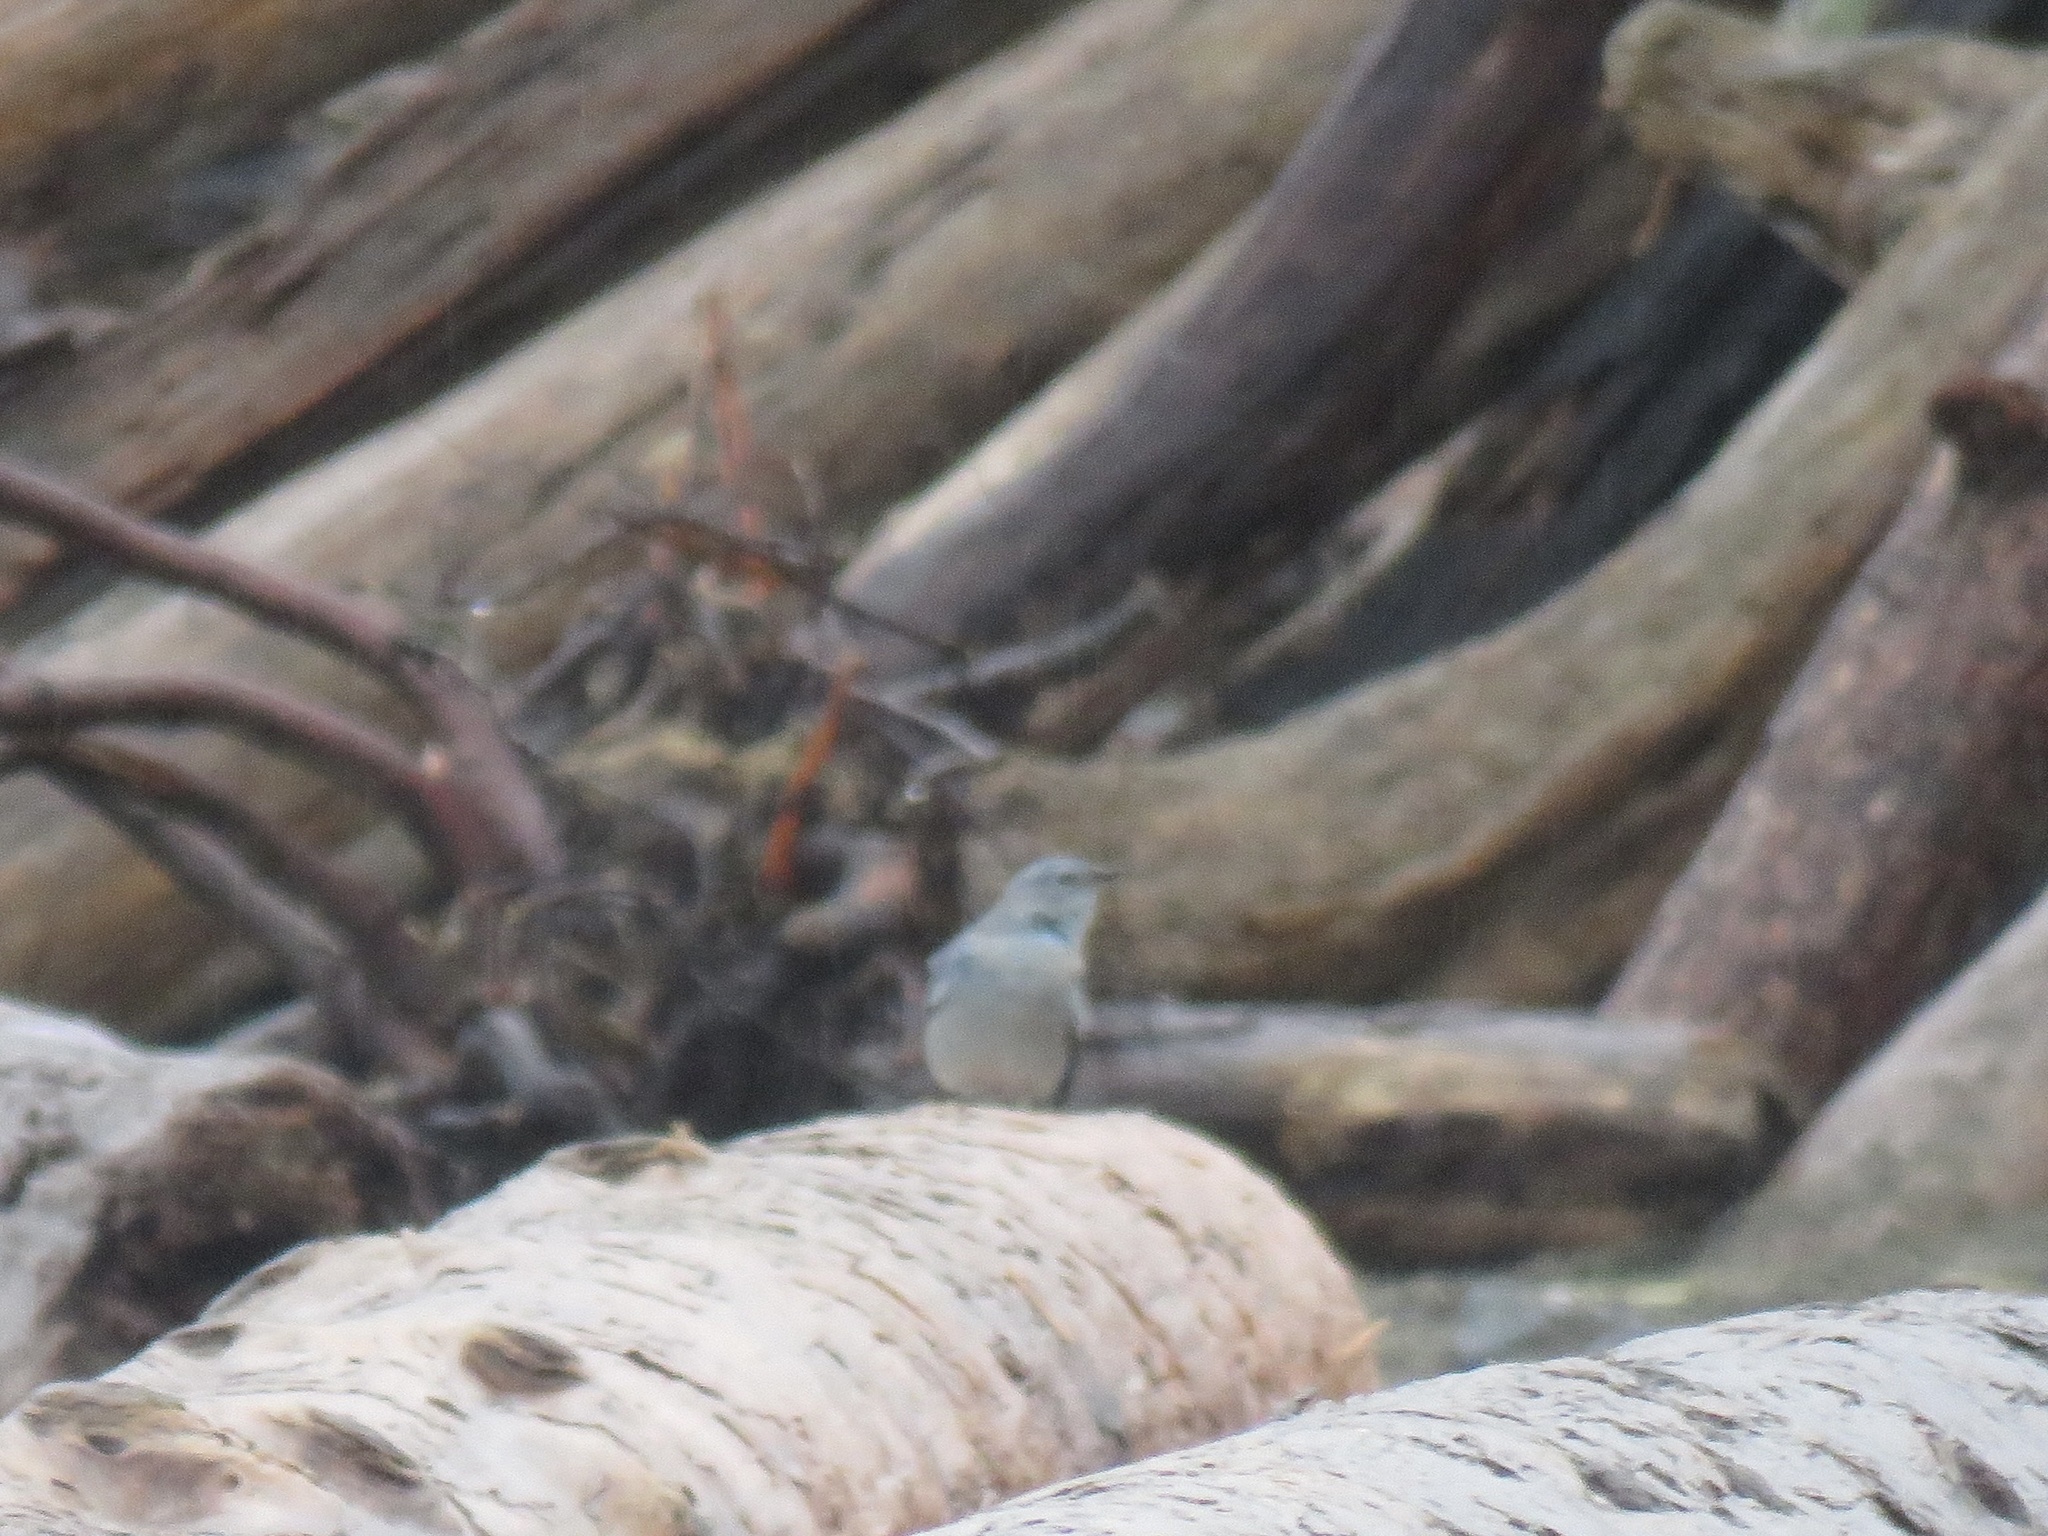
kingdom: Animalia
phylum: Chordata
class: Aves
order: Passeriformes
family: Turdidae
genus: Sialia
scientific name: Sialia currucoides
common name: Mountain bluebird
